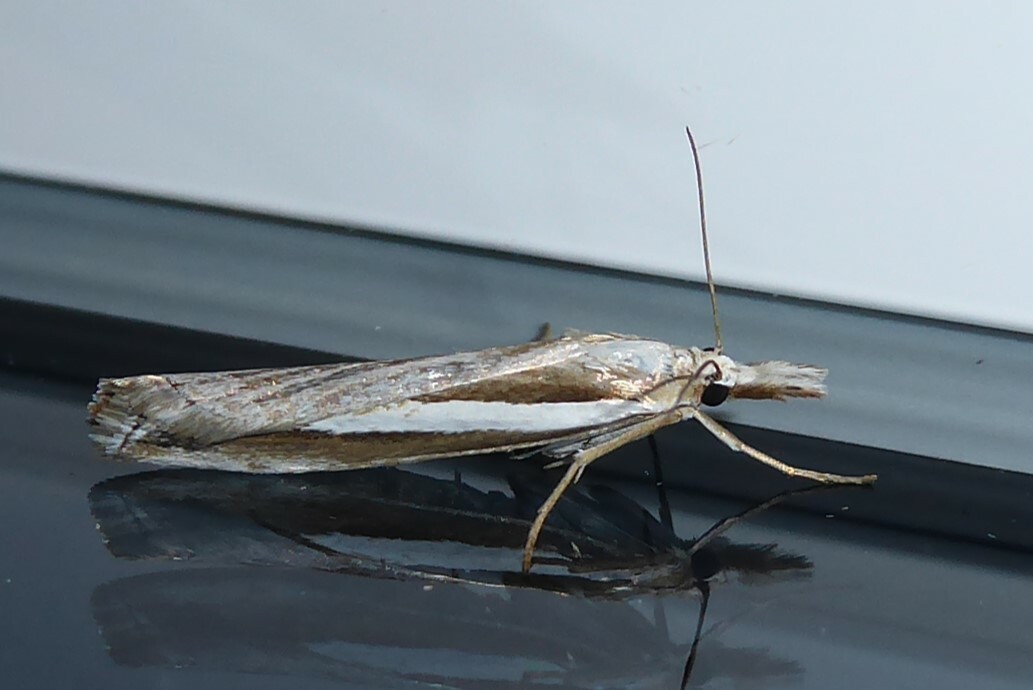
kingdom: Animalia
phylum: Arthropoda
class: Insecta
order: Lepidoptera
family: Crambidae
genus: Orocrambus
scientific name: Orocrambus vittellus
